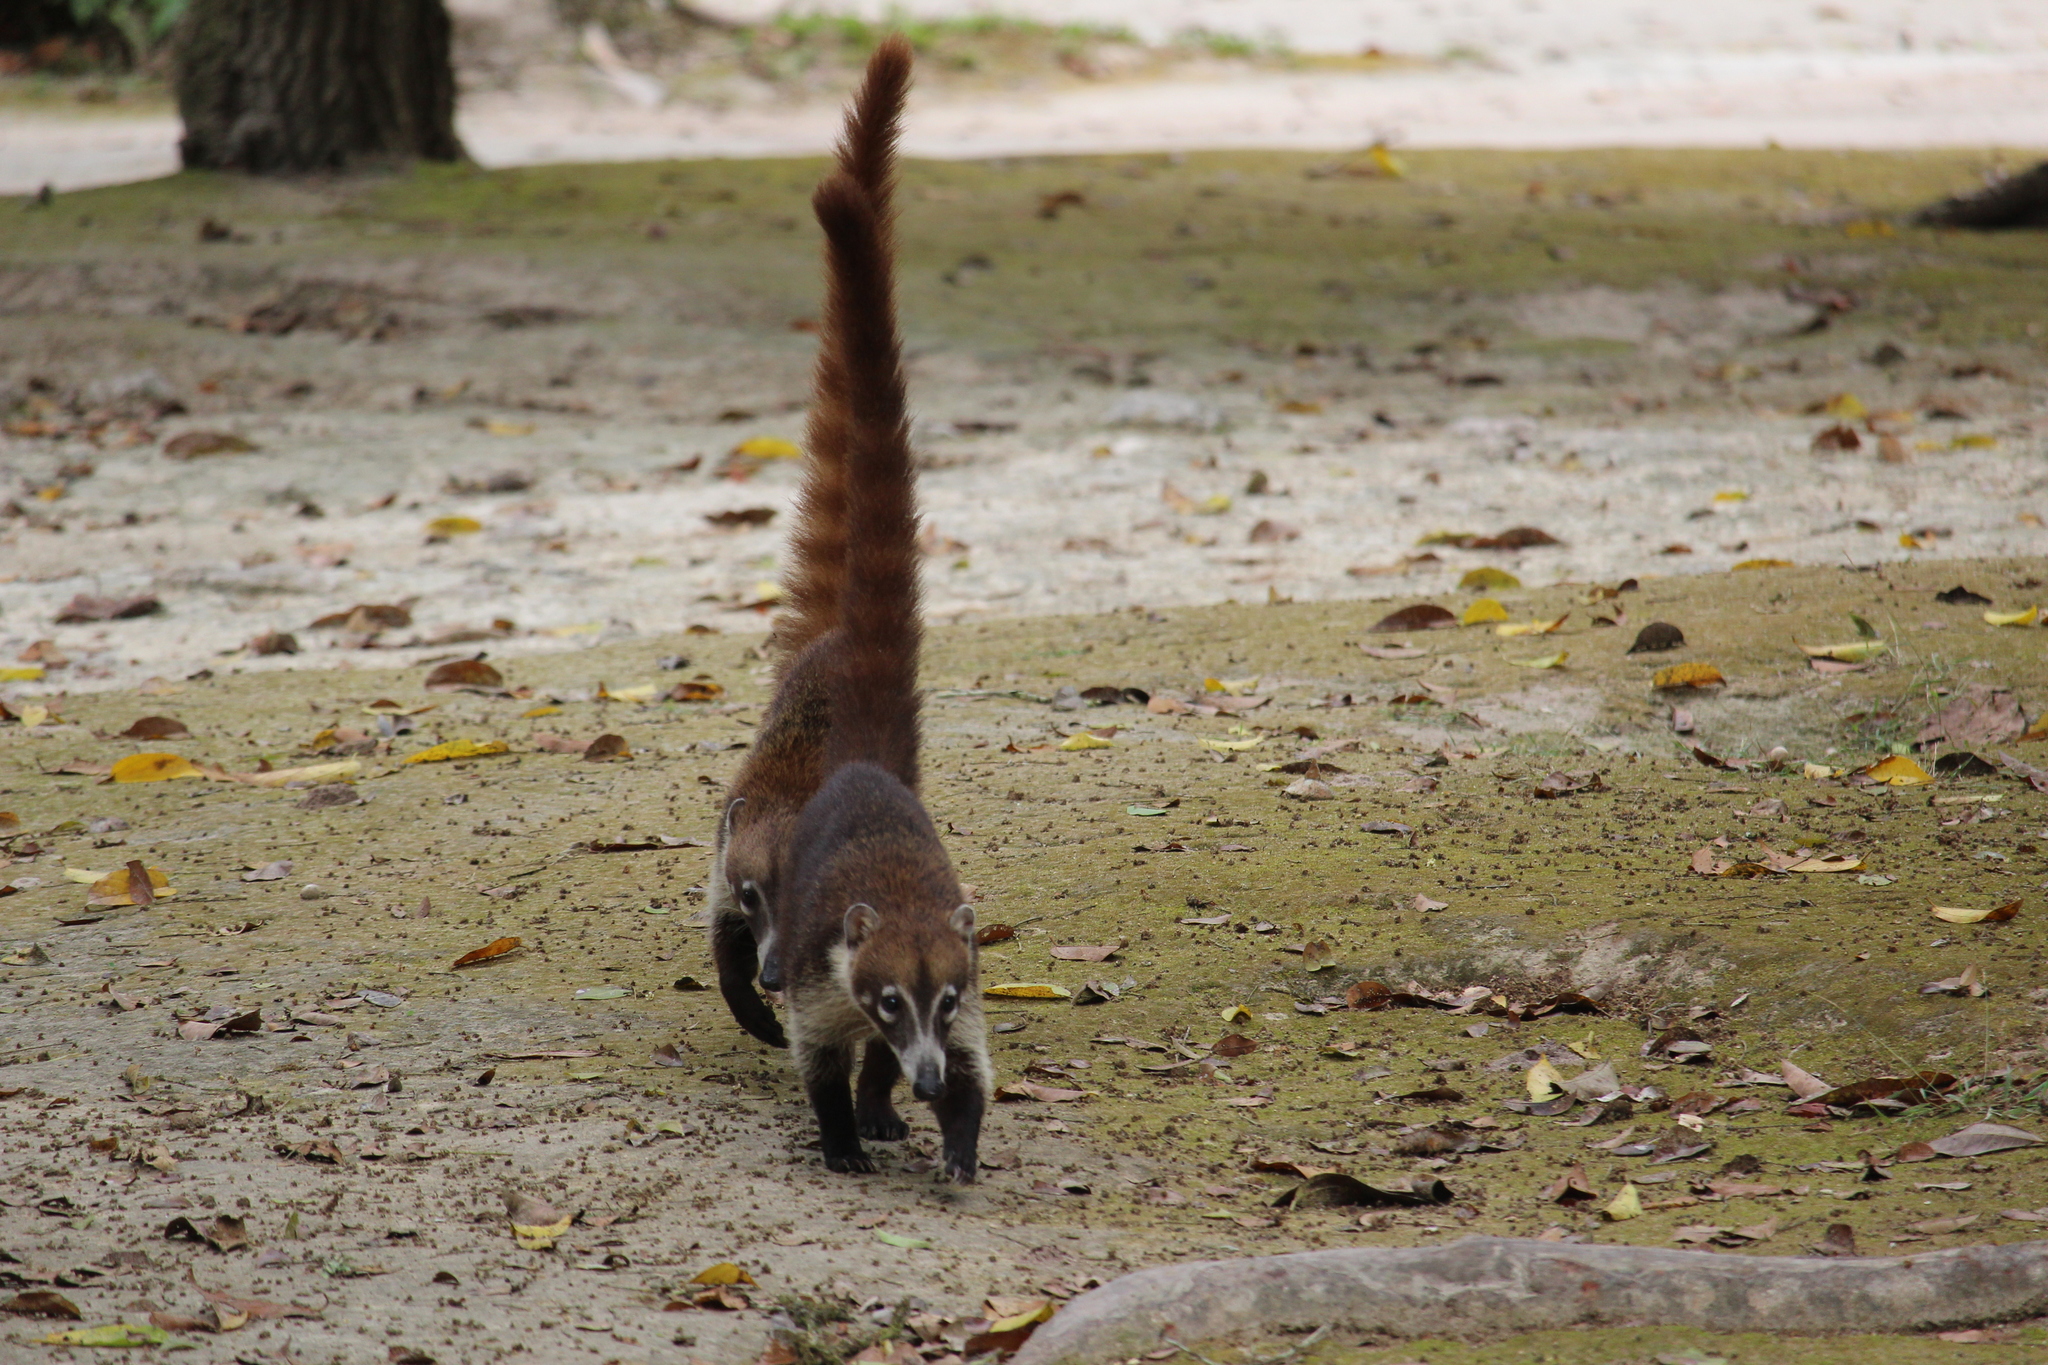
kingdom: Animalia
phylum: Chordata
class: Mammalia
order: Carnivora
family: Procyonidae
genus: Nasua
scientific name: Nasua narica
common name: White-nosed coati
